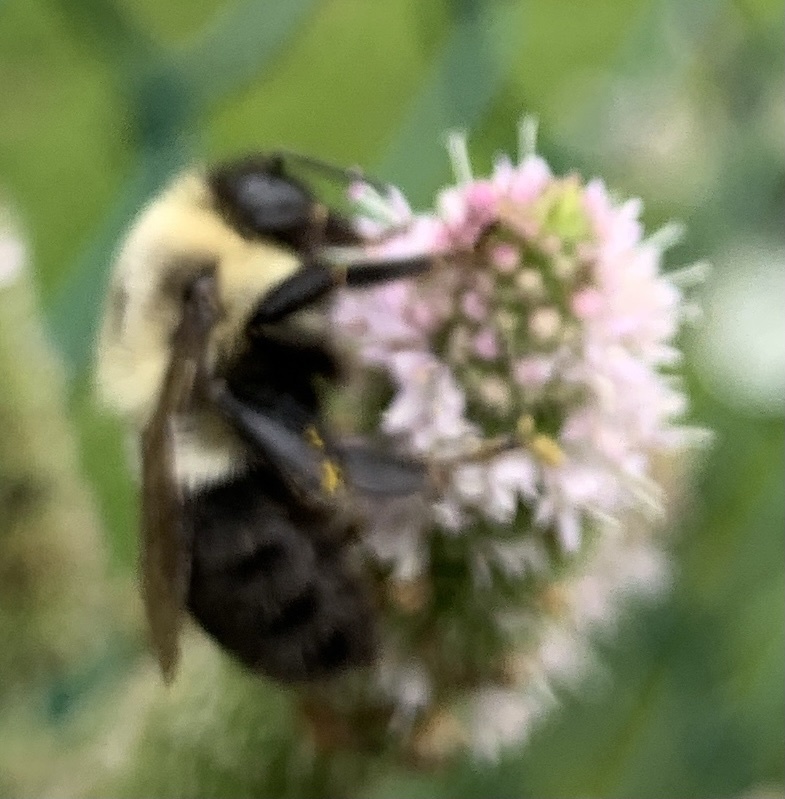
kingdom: Animalia
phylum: Arthropoda
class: Insecta
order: Hymenoptera
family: Apidae
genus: Bombus
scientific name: Bombus impatiens
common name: Common eastern bumble bee
